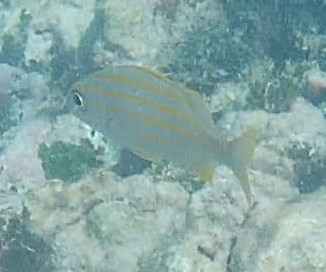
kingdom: Animalia
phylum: Chordata
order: Perciformes
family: Haemulidae
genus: Haemulon
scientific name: Haemulon chrysargyreum
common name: Smallmouth grunt
